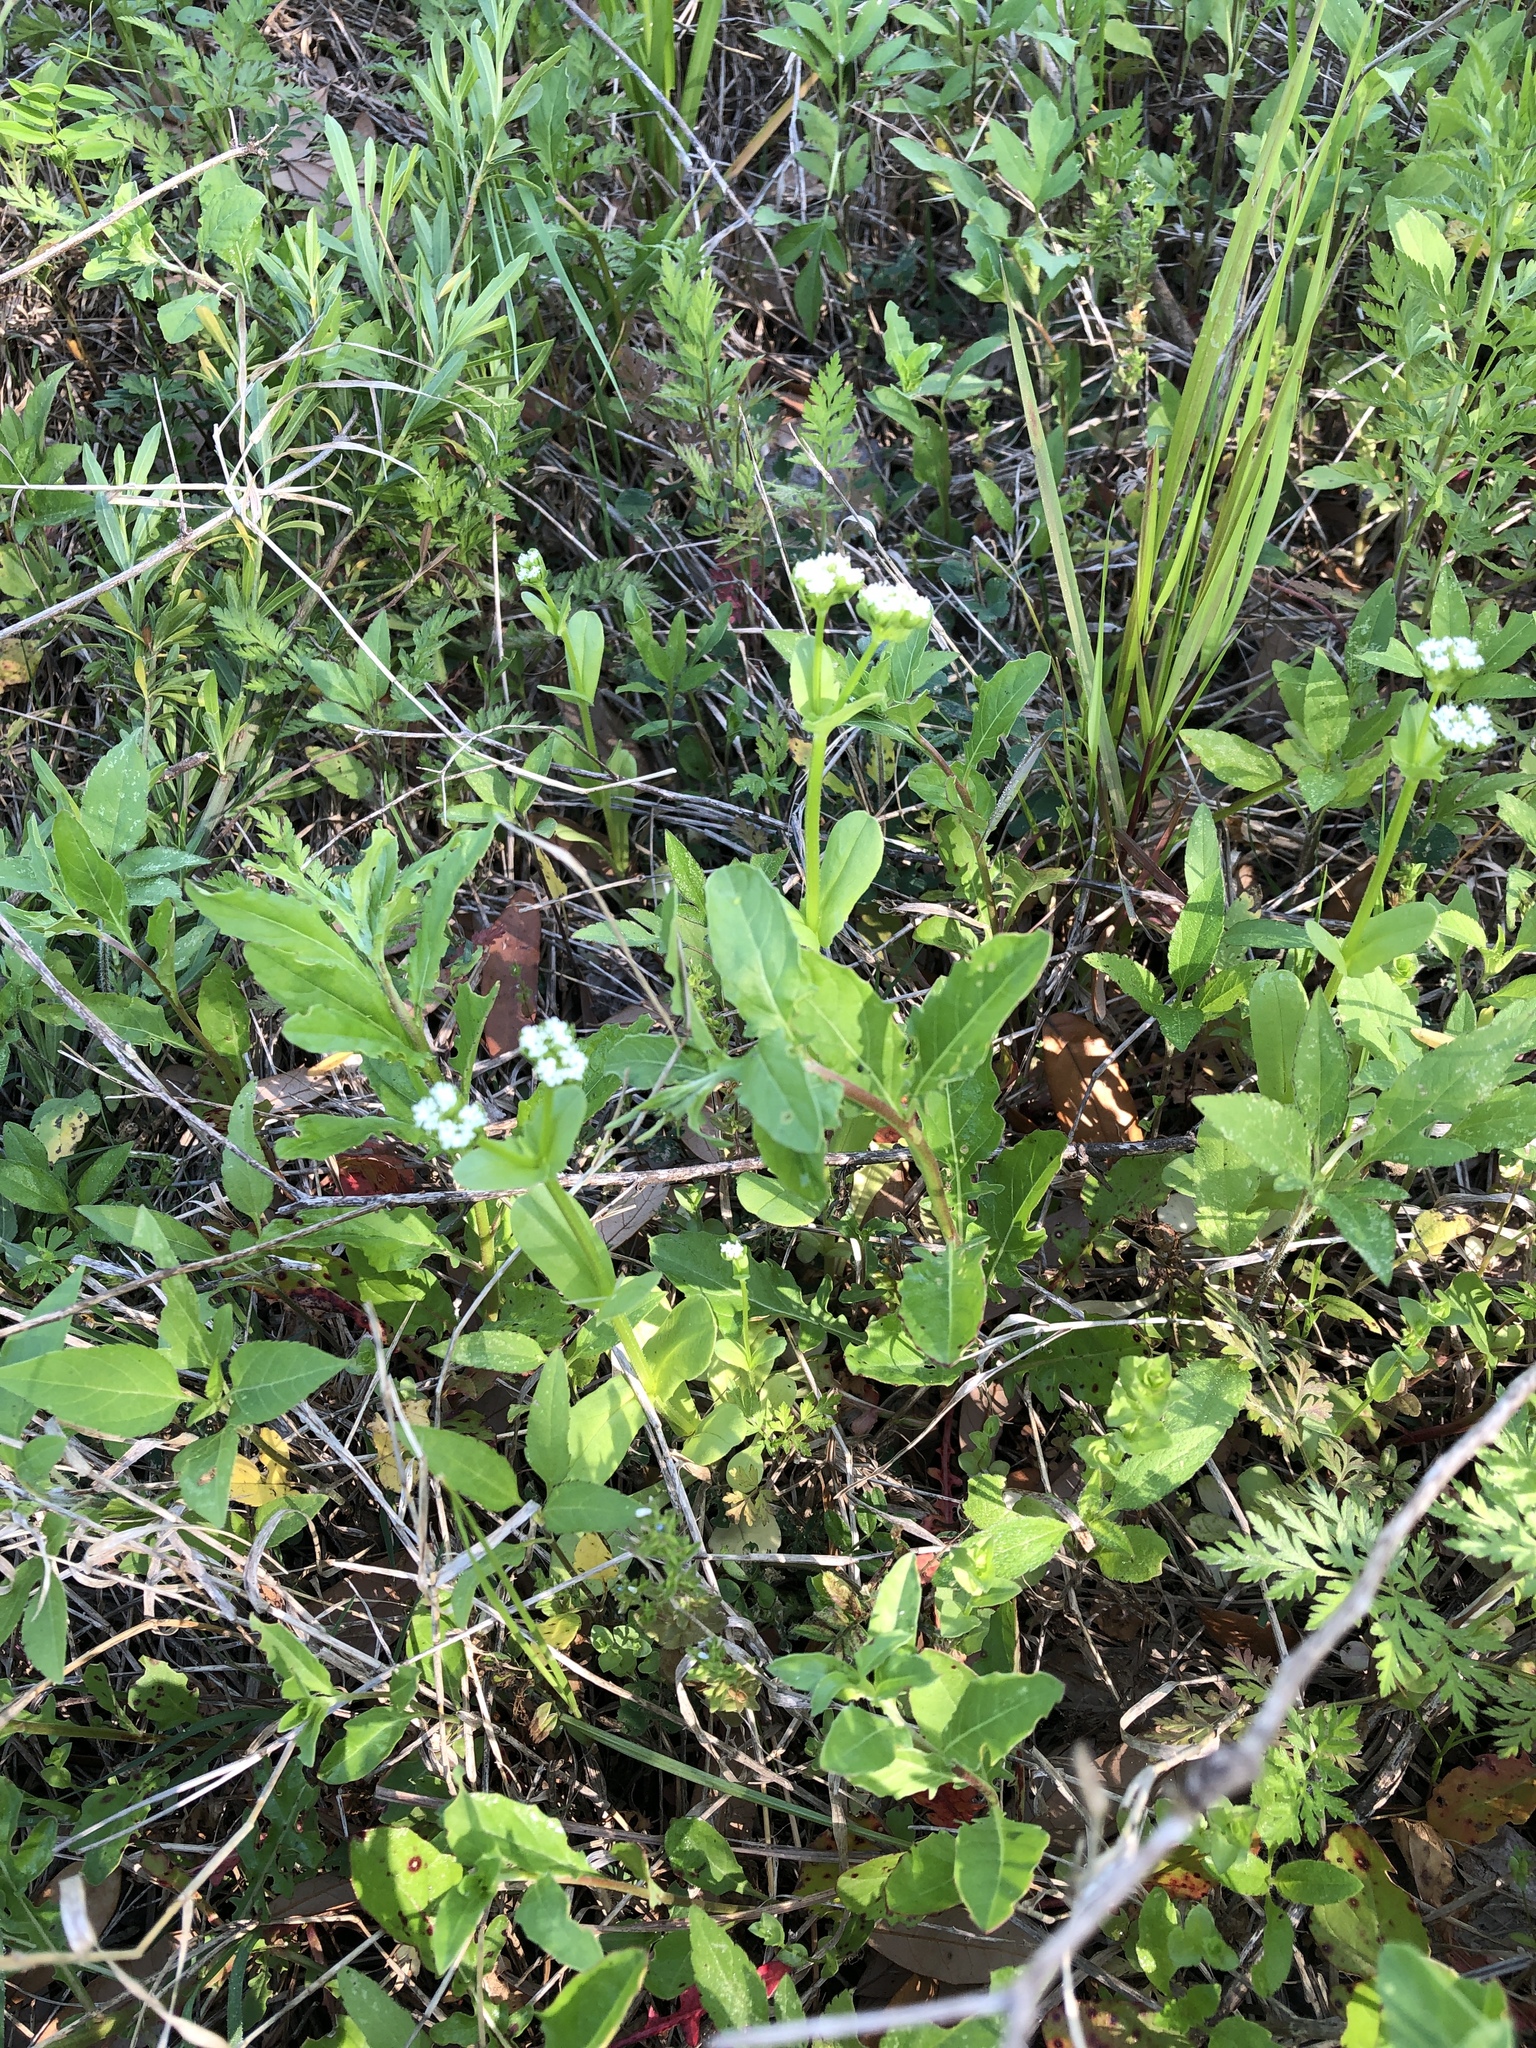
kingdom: Plantae
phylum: Tracheophyta
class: Magnoliopsida
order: Dipsacales
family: Caprifoliaceae
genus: Valerianella
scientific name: Valerianella radiata
